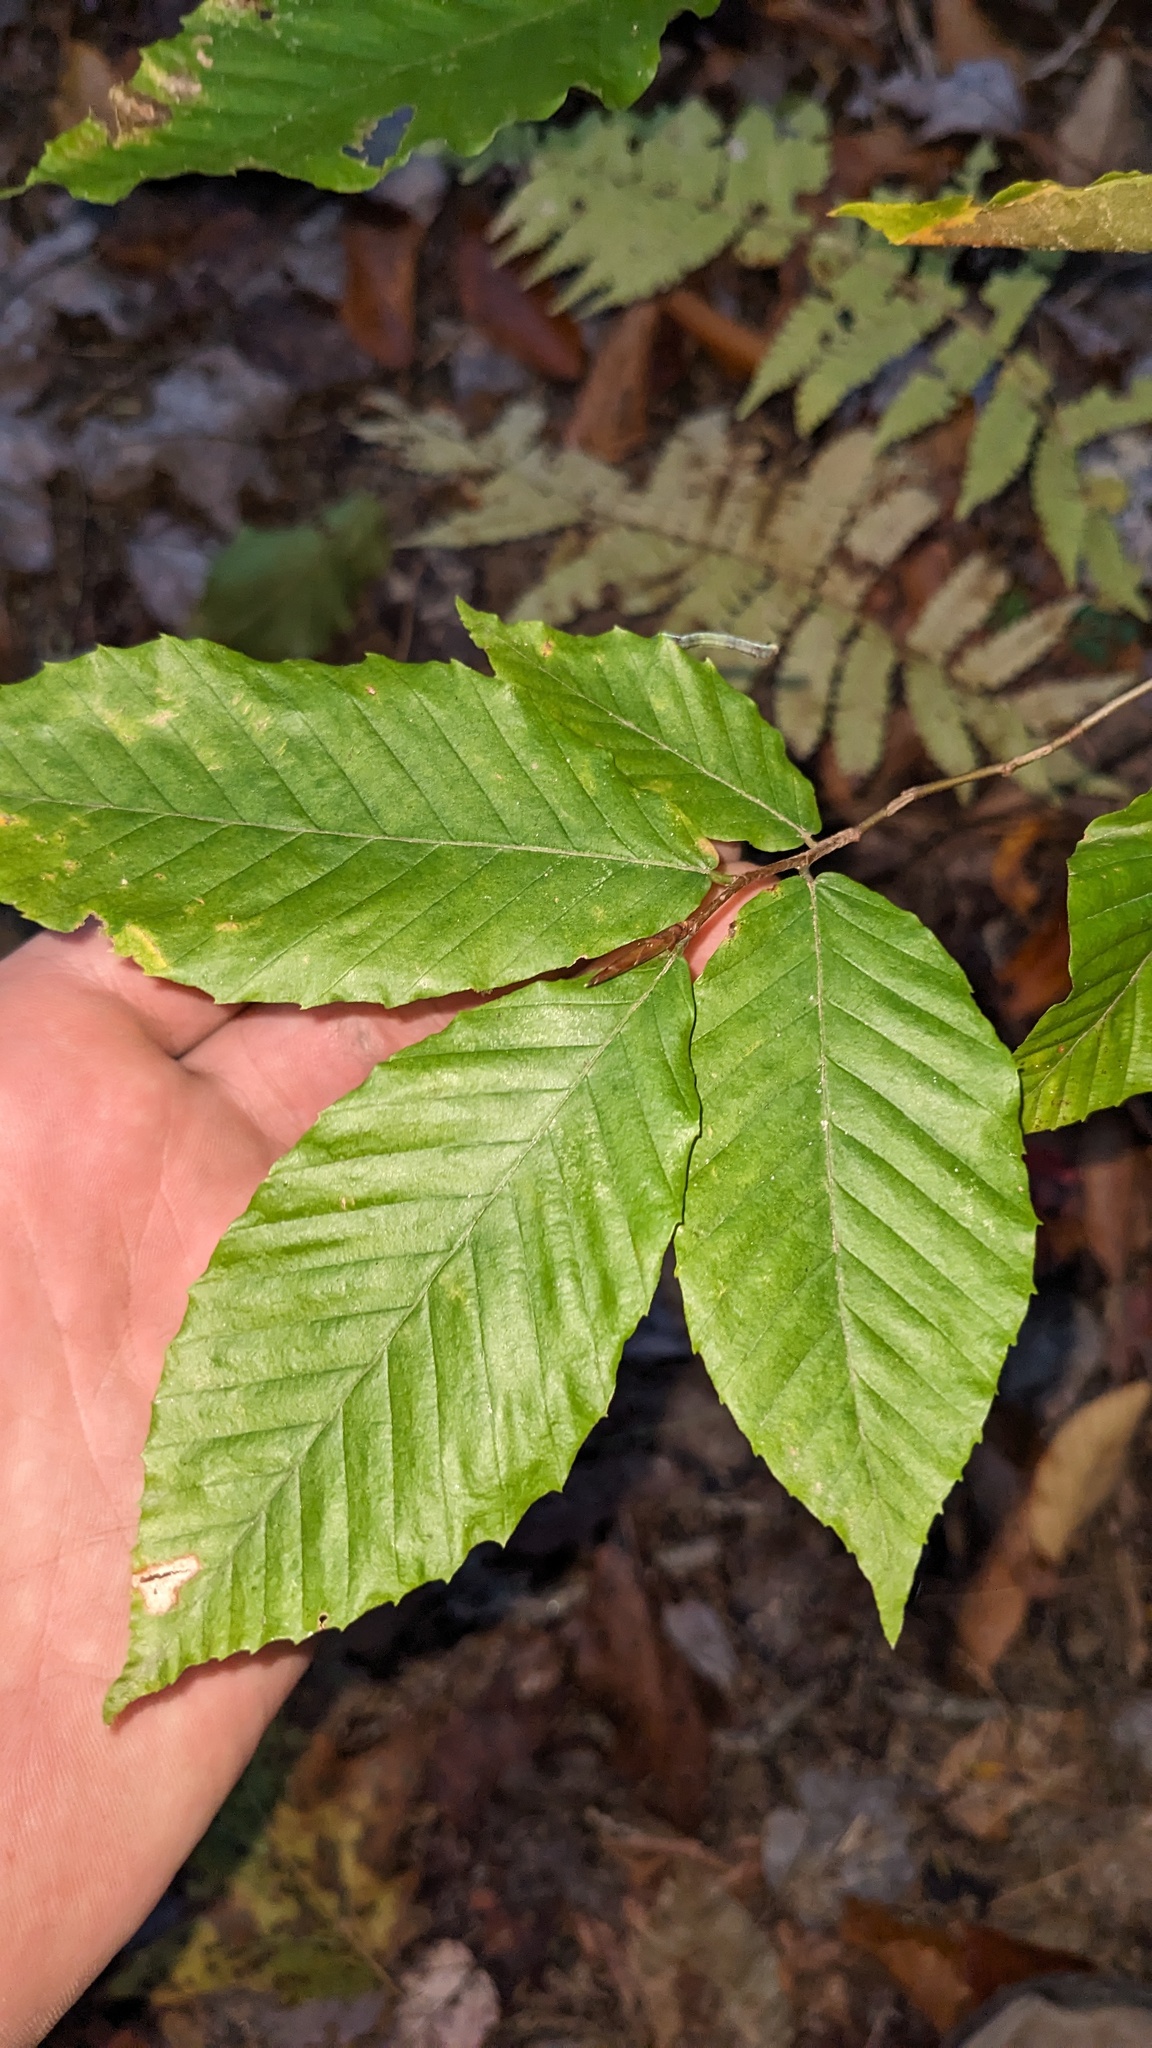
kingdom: Plantae
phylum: Tracheophyta
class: Magnoliopsida
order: Fagales
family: Fagaceae
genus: Fagus
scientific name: Fagus grandifolia
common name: American beech
